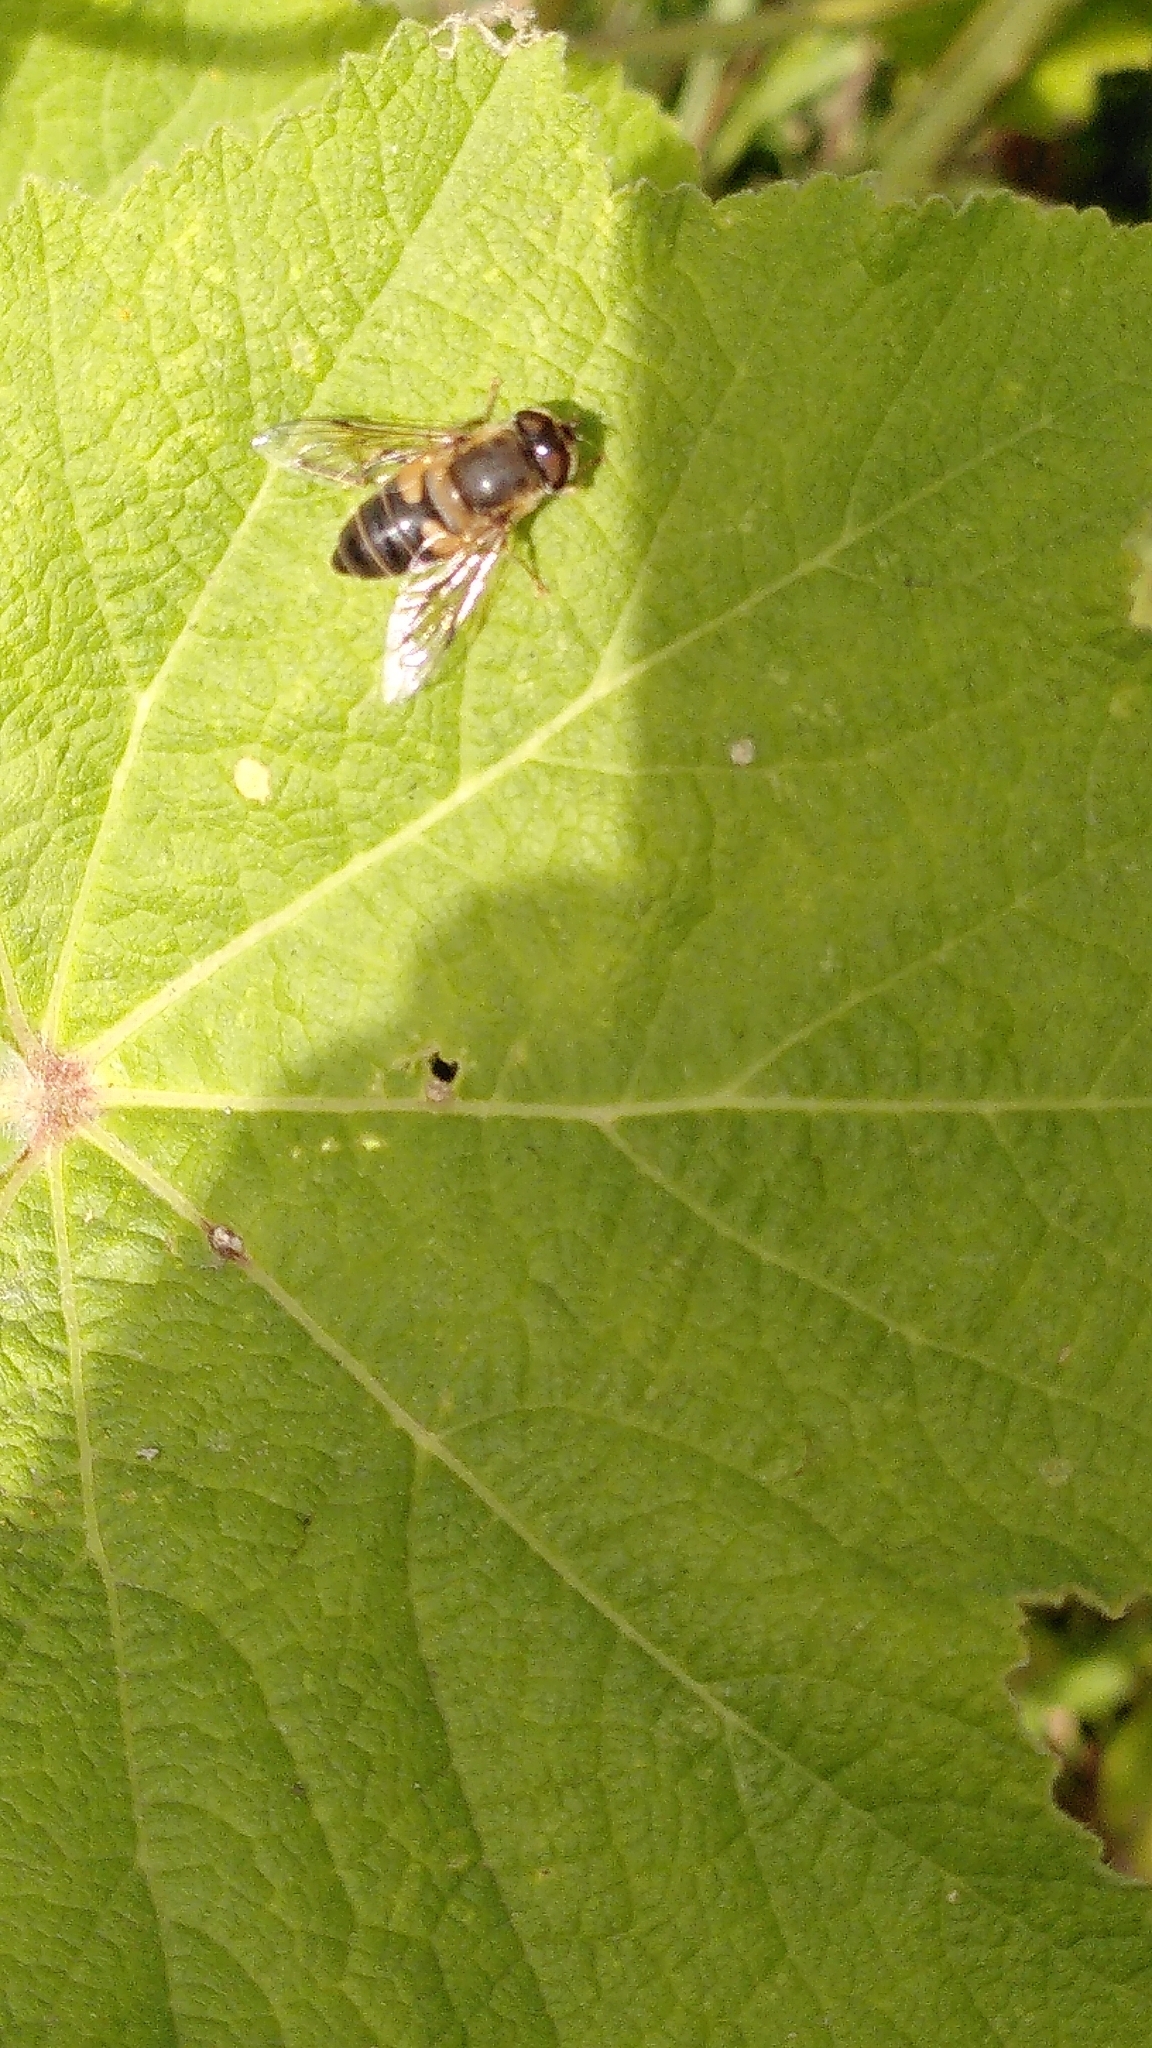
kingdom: Animalia
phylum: Arthropoda
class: Insecta
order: Diptera
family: Syrphidae
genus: Eristalis
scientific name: Eristalis pertinax
